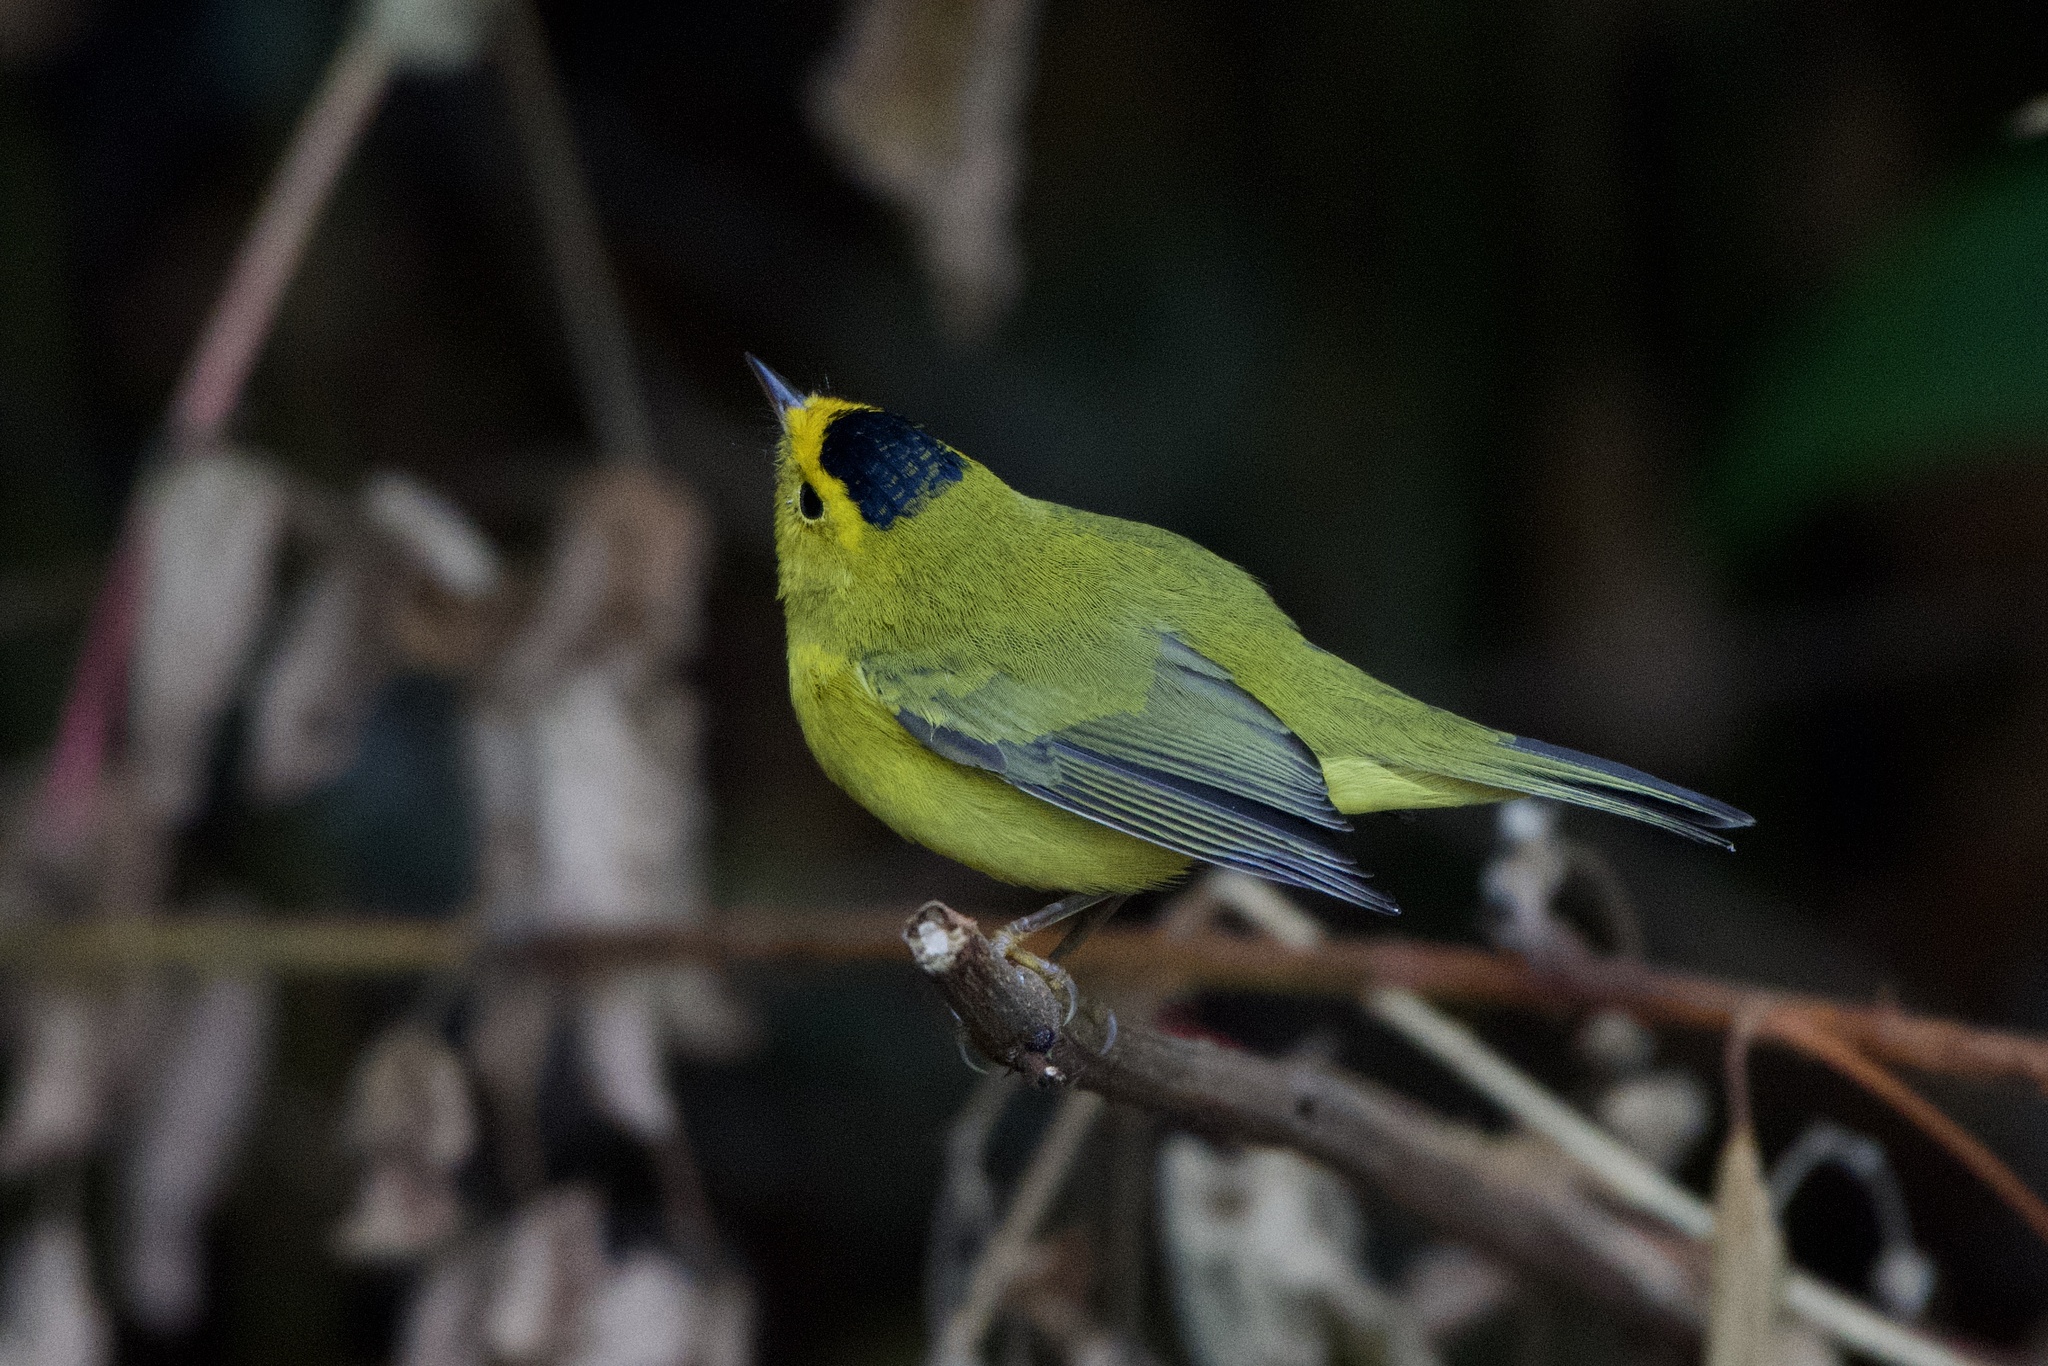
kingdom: Animalia
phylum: Chordata
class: Aves
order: Passeriformes
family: Parulidae
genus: Cardellina
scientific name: Cardellina pusilla
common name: Wilson's warbler
